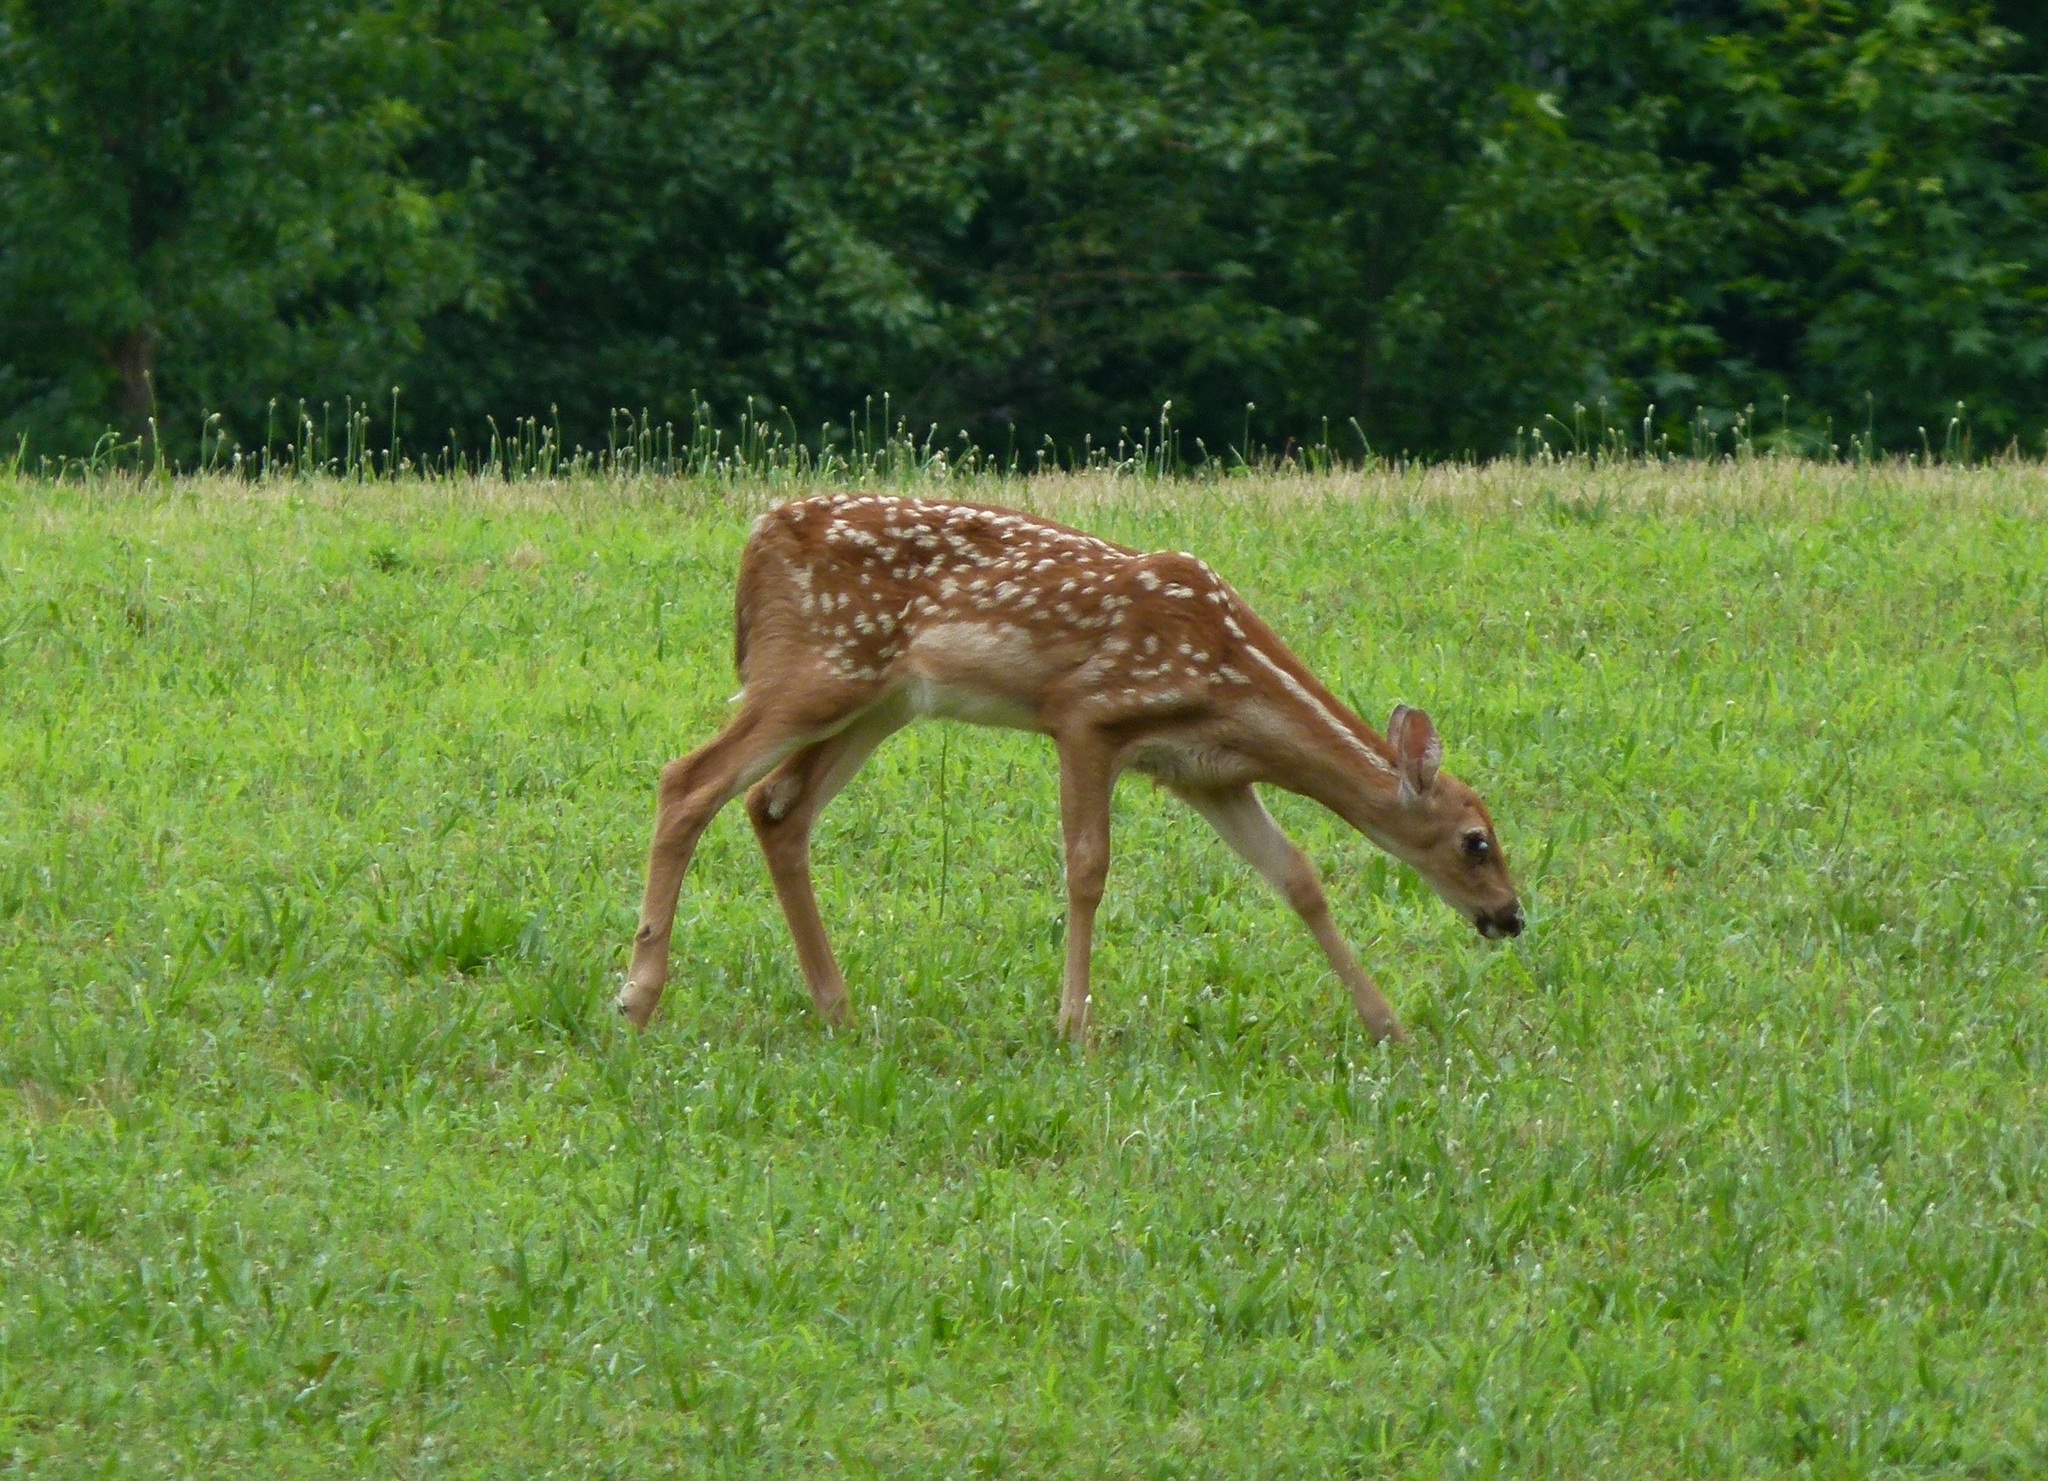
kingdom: Animalia
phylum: Chordata
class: Mammalia
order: Artiodactyla
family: Cervidae
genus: Odocoileus
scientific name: Odocoileus virginianus
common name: White-tailed deer
